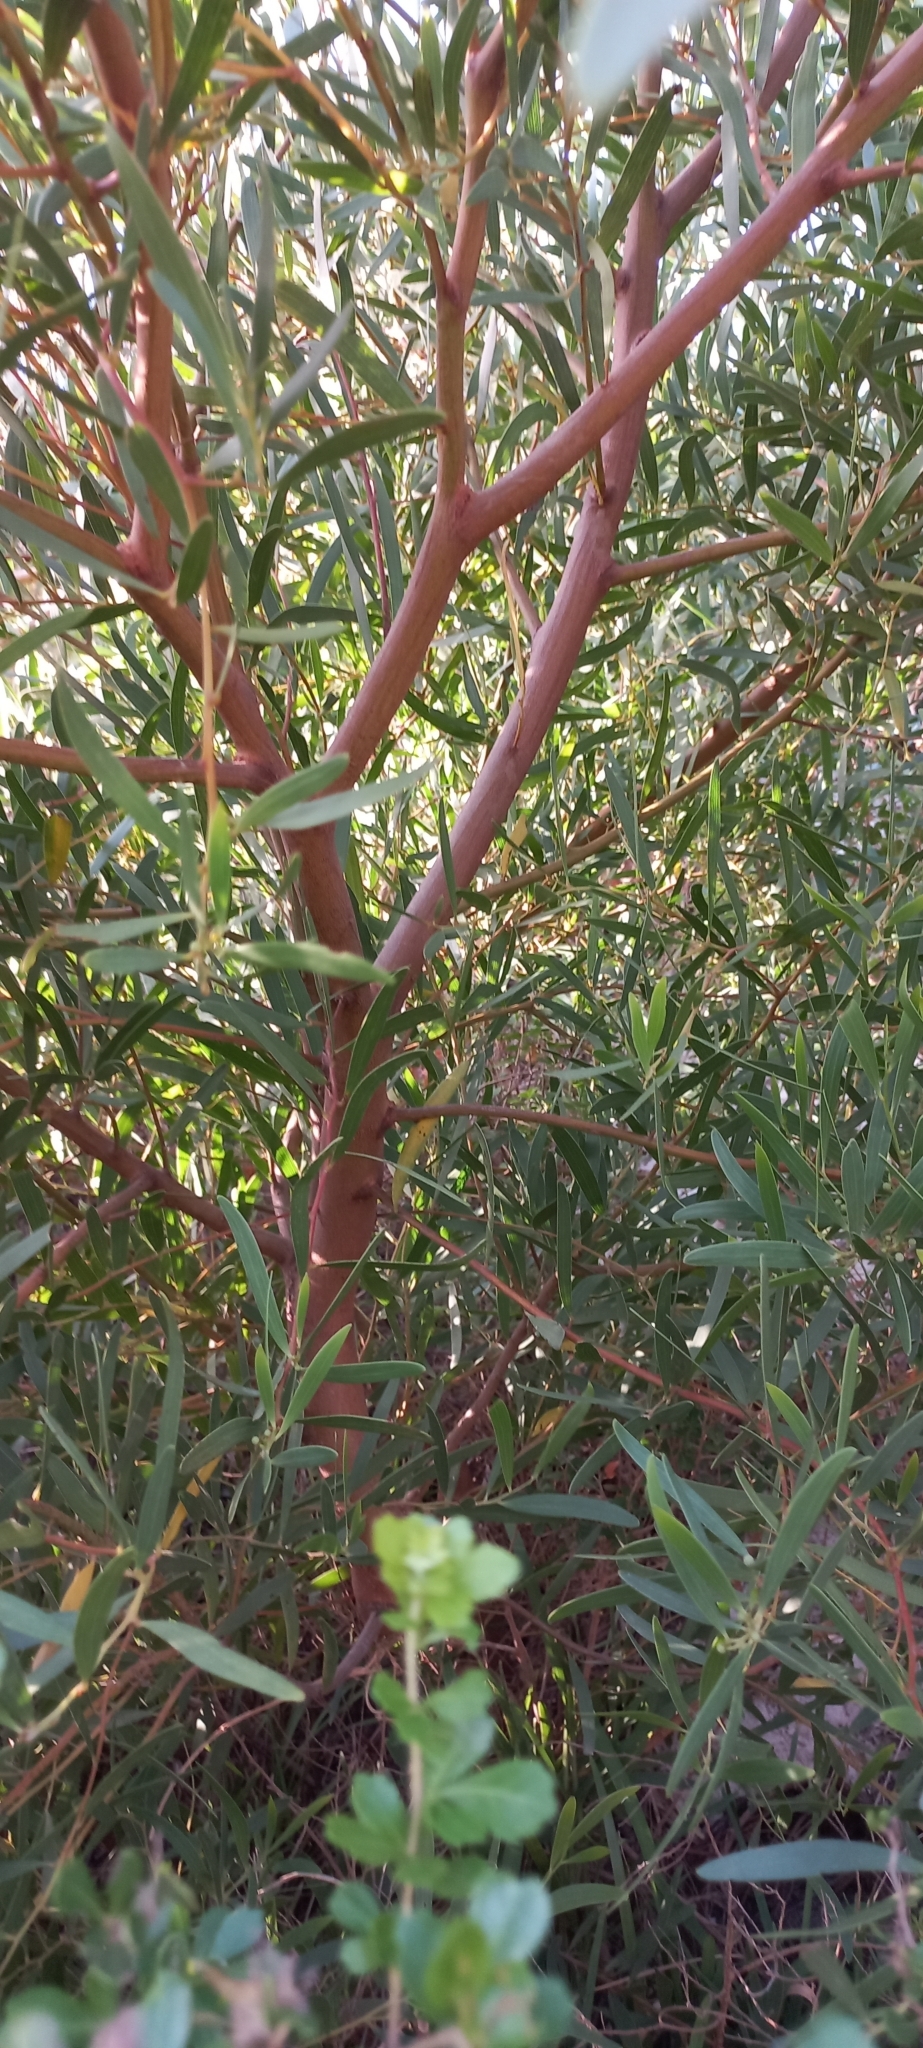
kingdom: Plantae
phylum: Tracheophyta
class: Magnoliopsida
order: Fabales
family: Fabaceae
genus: Acacia
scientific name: Acacia cyclops
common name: Coastal wattle
